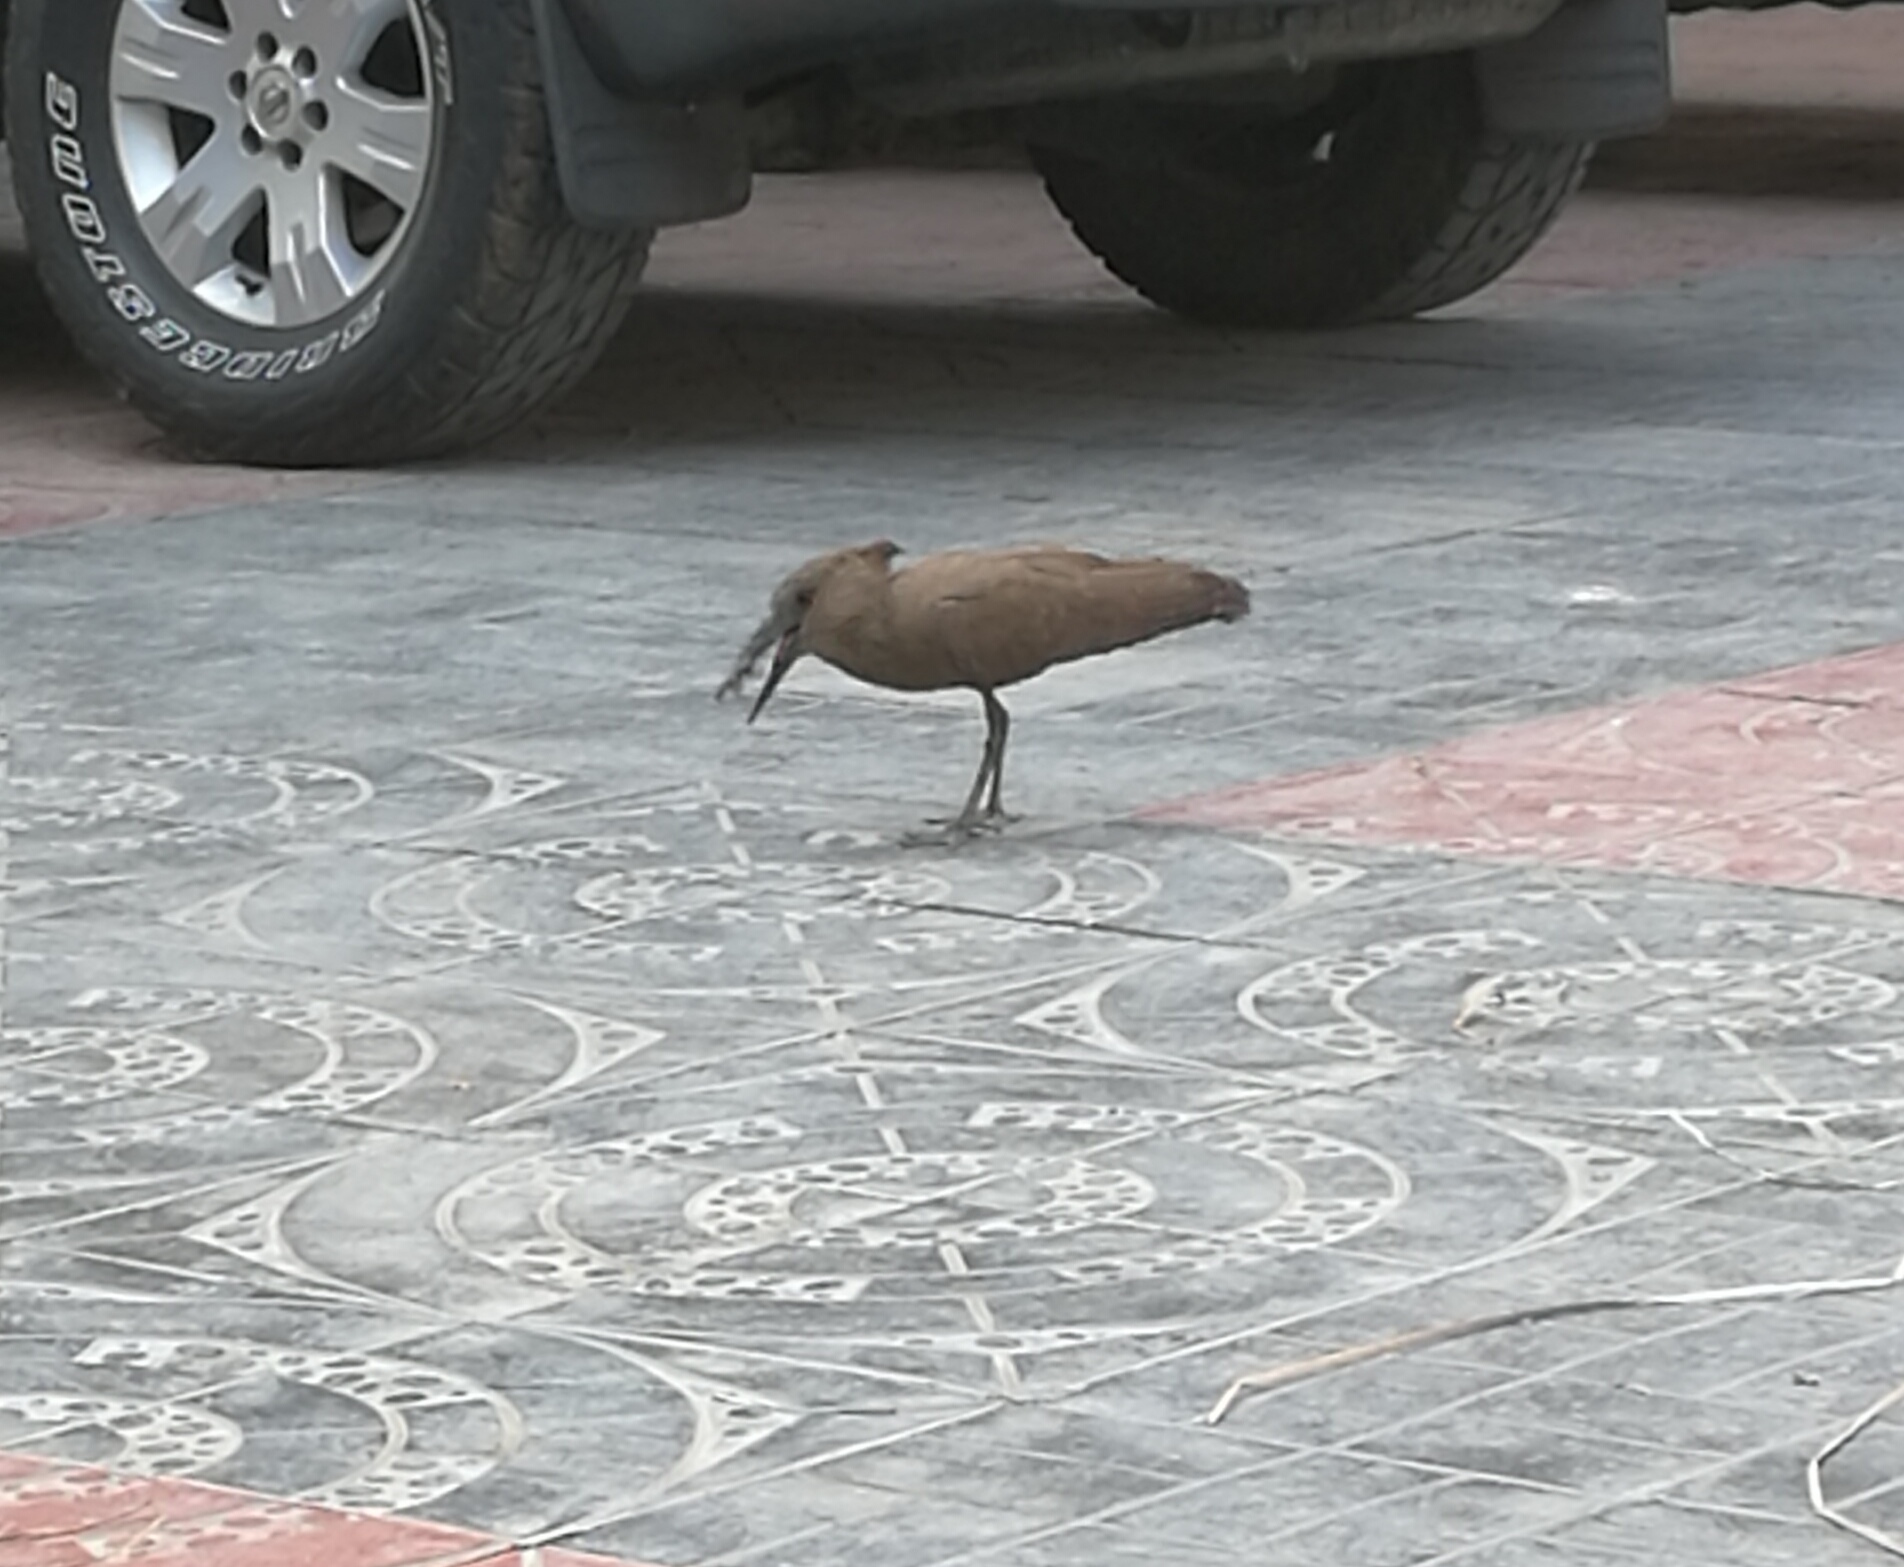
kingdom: Animalia
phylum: Chordata
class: Aves
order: Pelecaniformes
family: Scopidae
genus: Scopus
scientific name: Scopus umbretta
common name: Hamerkop
